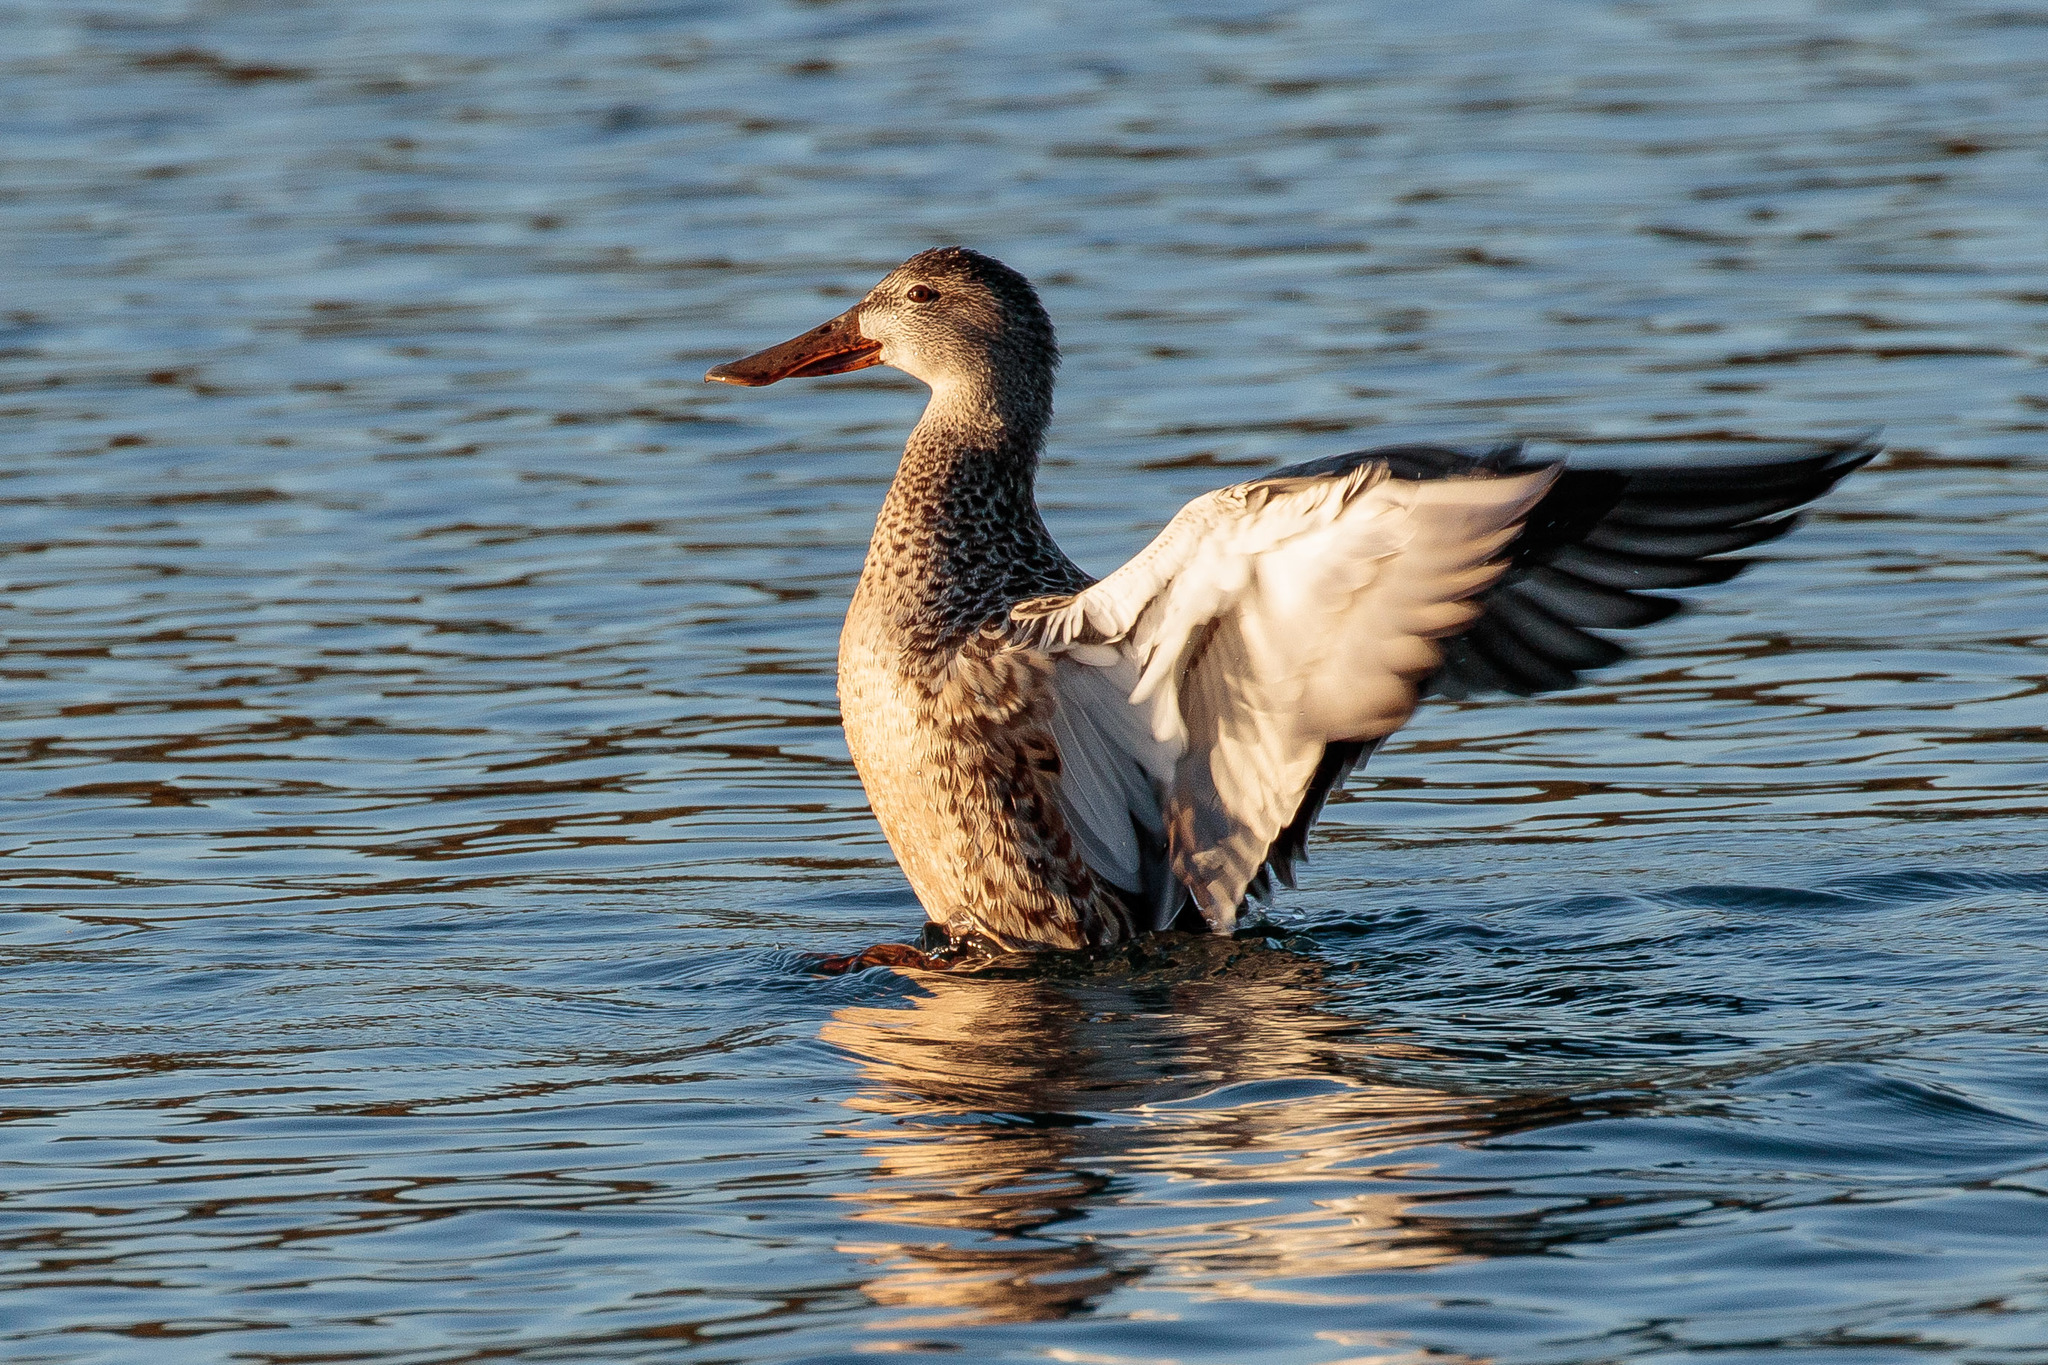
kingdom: Animalia
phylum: Chordata
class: Aves
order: Anseriformes
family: Anatidae
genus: Spatula
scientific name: Spatula clypeata
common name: Northern shoveler
